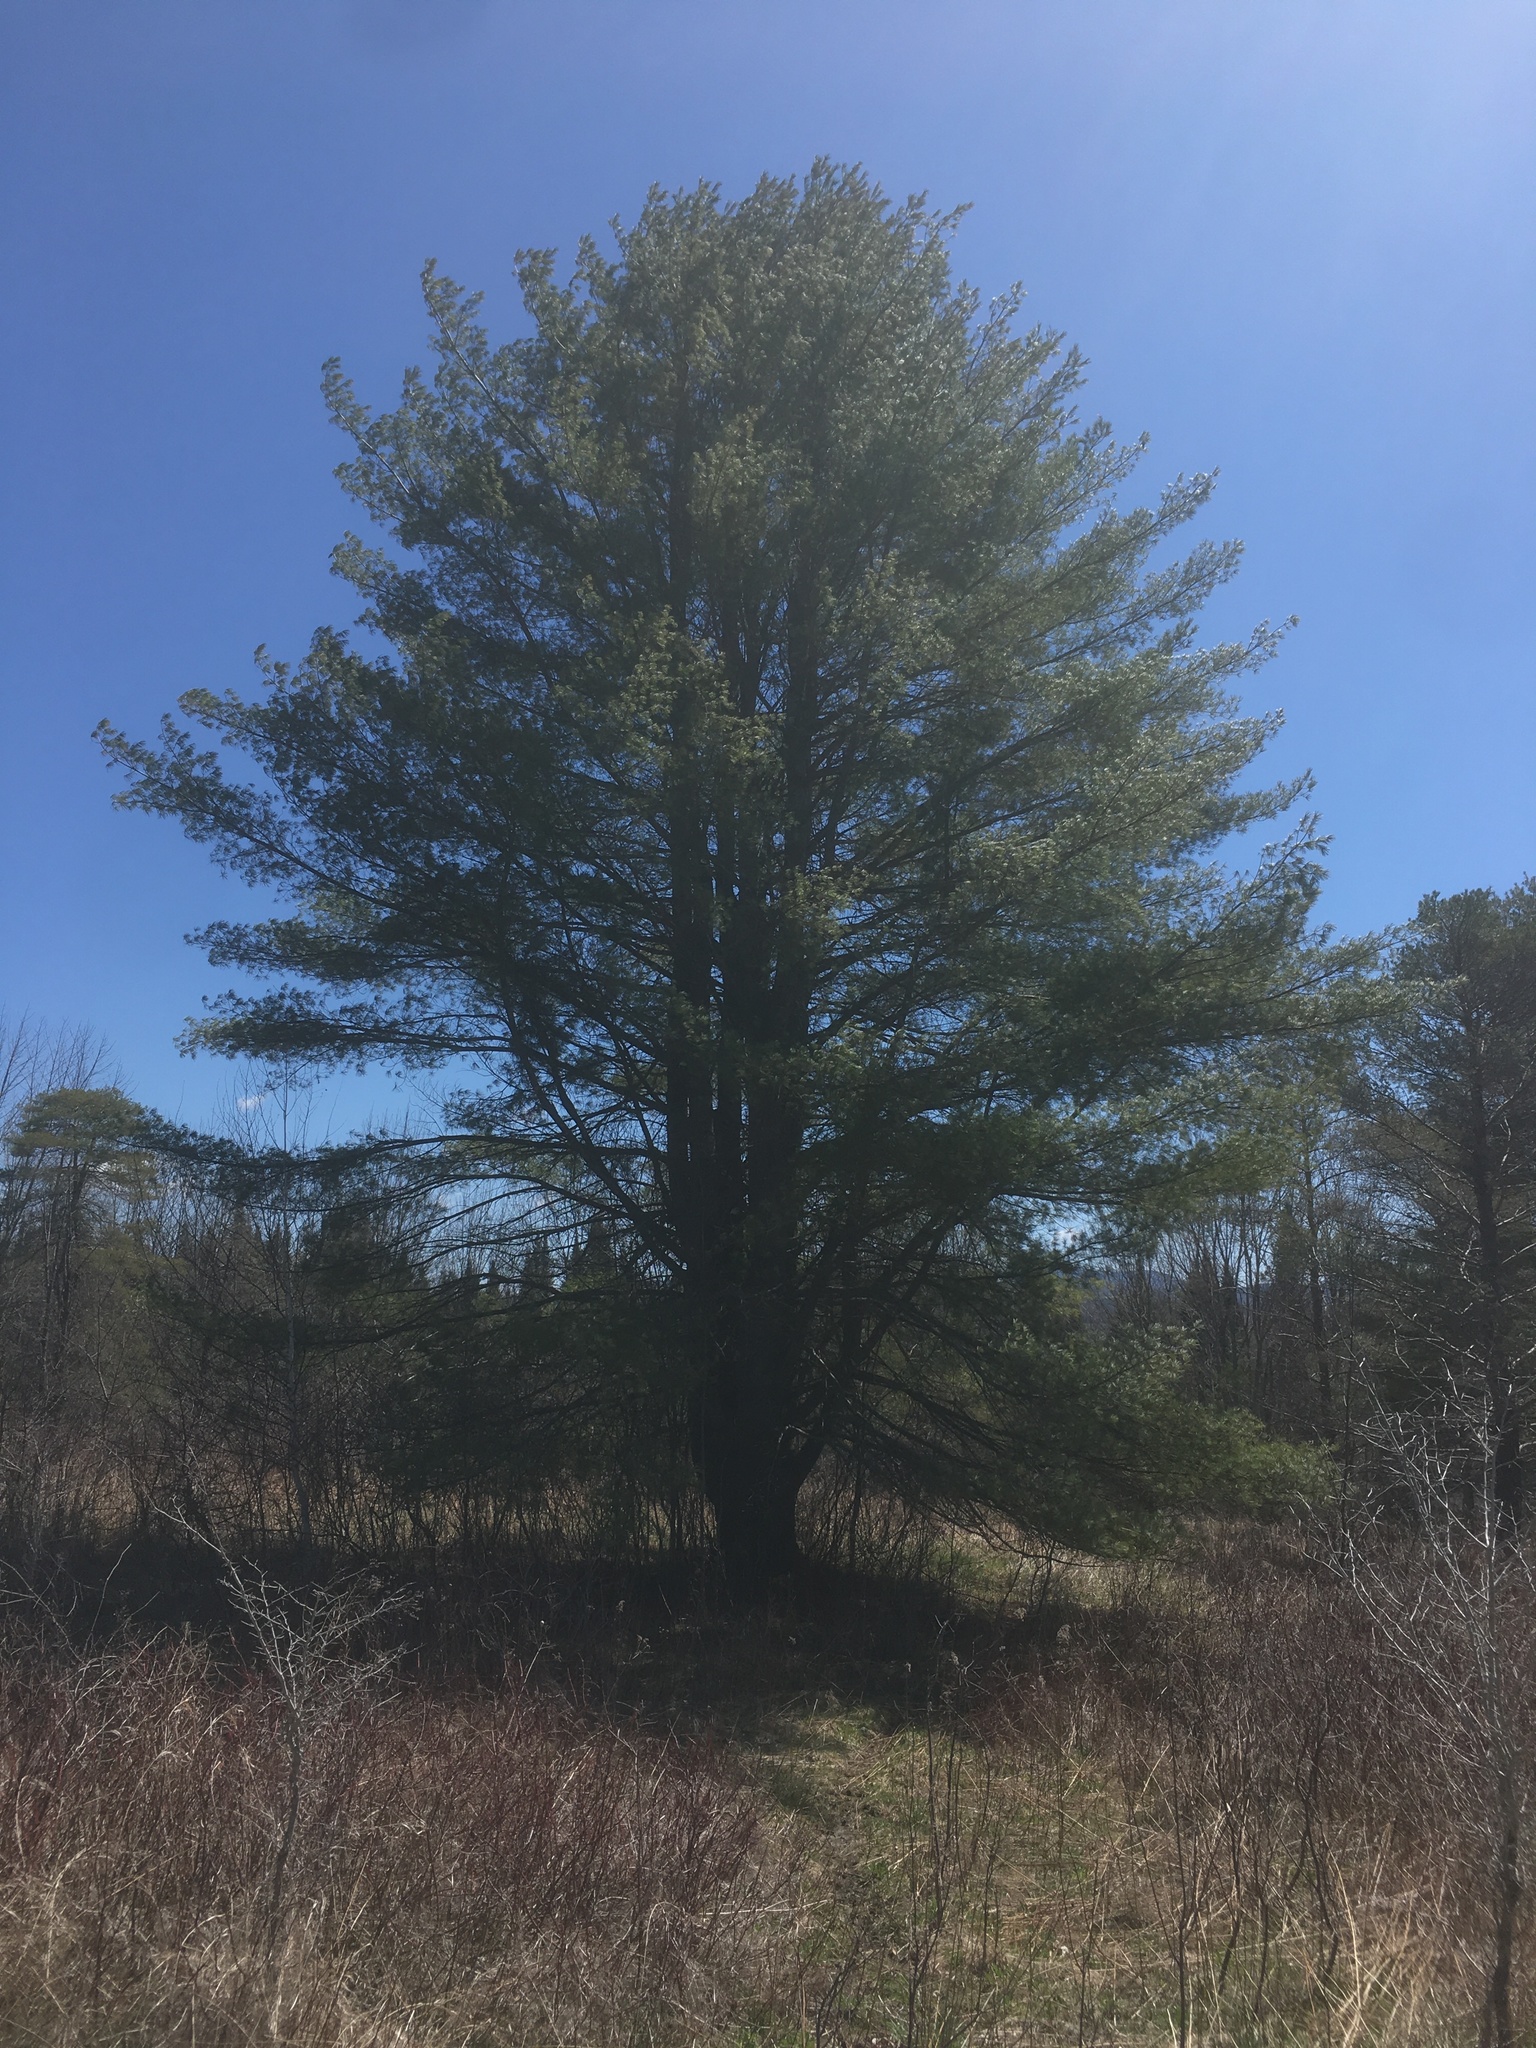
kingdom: Plantae
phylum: Tracheophyta
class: Pinopsida
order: Pinales
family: Pinaceae
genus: Pinus
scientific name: Pinus strobus
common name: Weymouth pine
